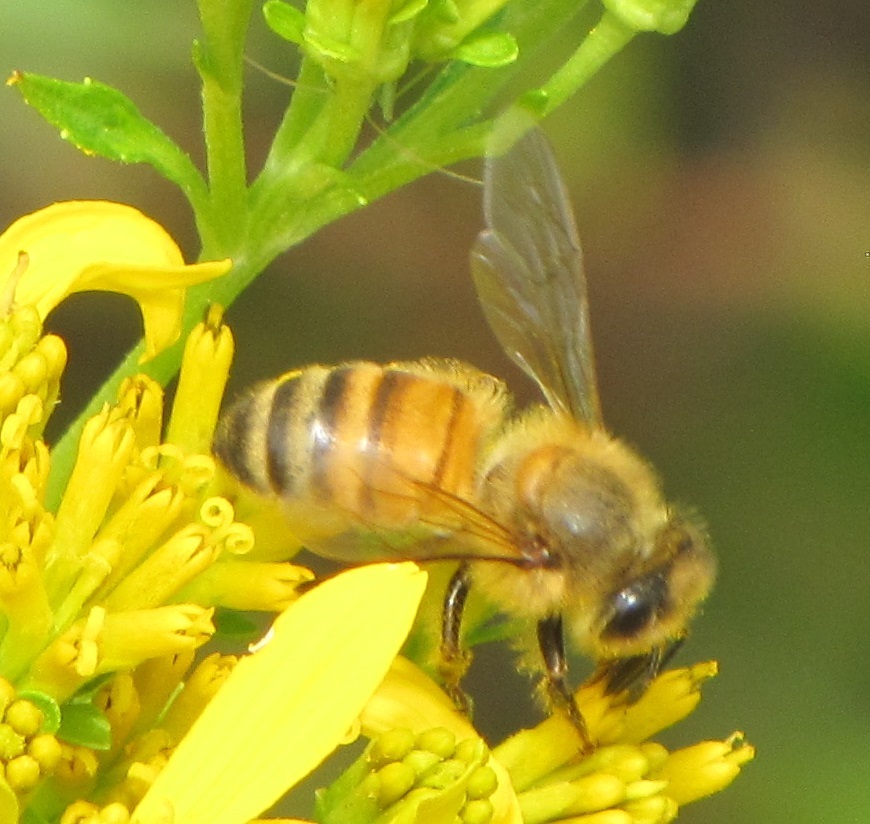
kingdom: Animalia
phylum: Arthropoda
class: Insecta
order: Hymenoptera
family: Apidae
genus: Apis
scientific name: Apis mellifera
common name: Honey bee
